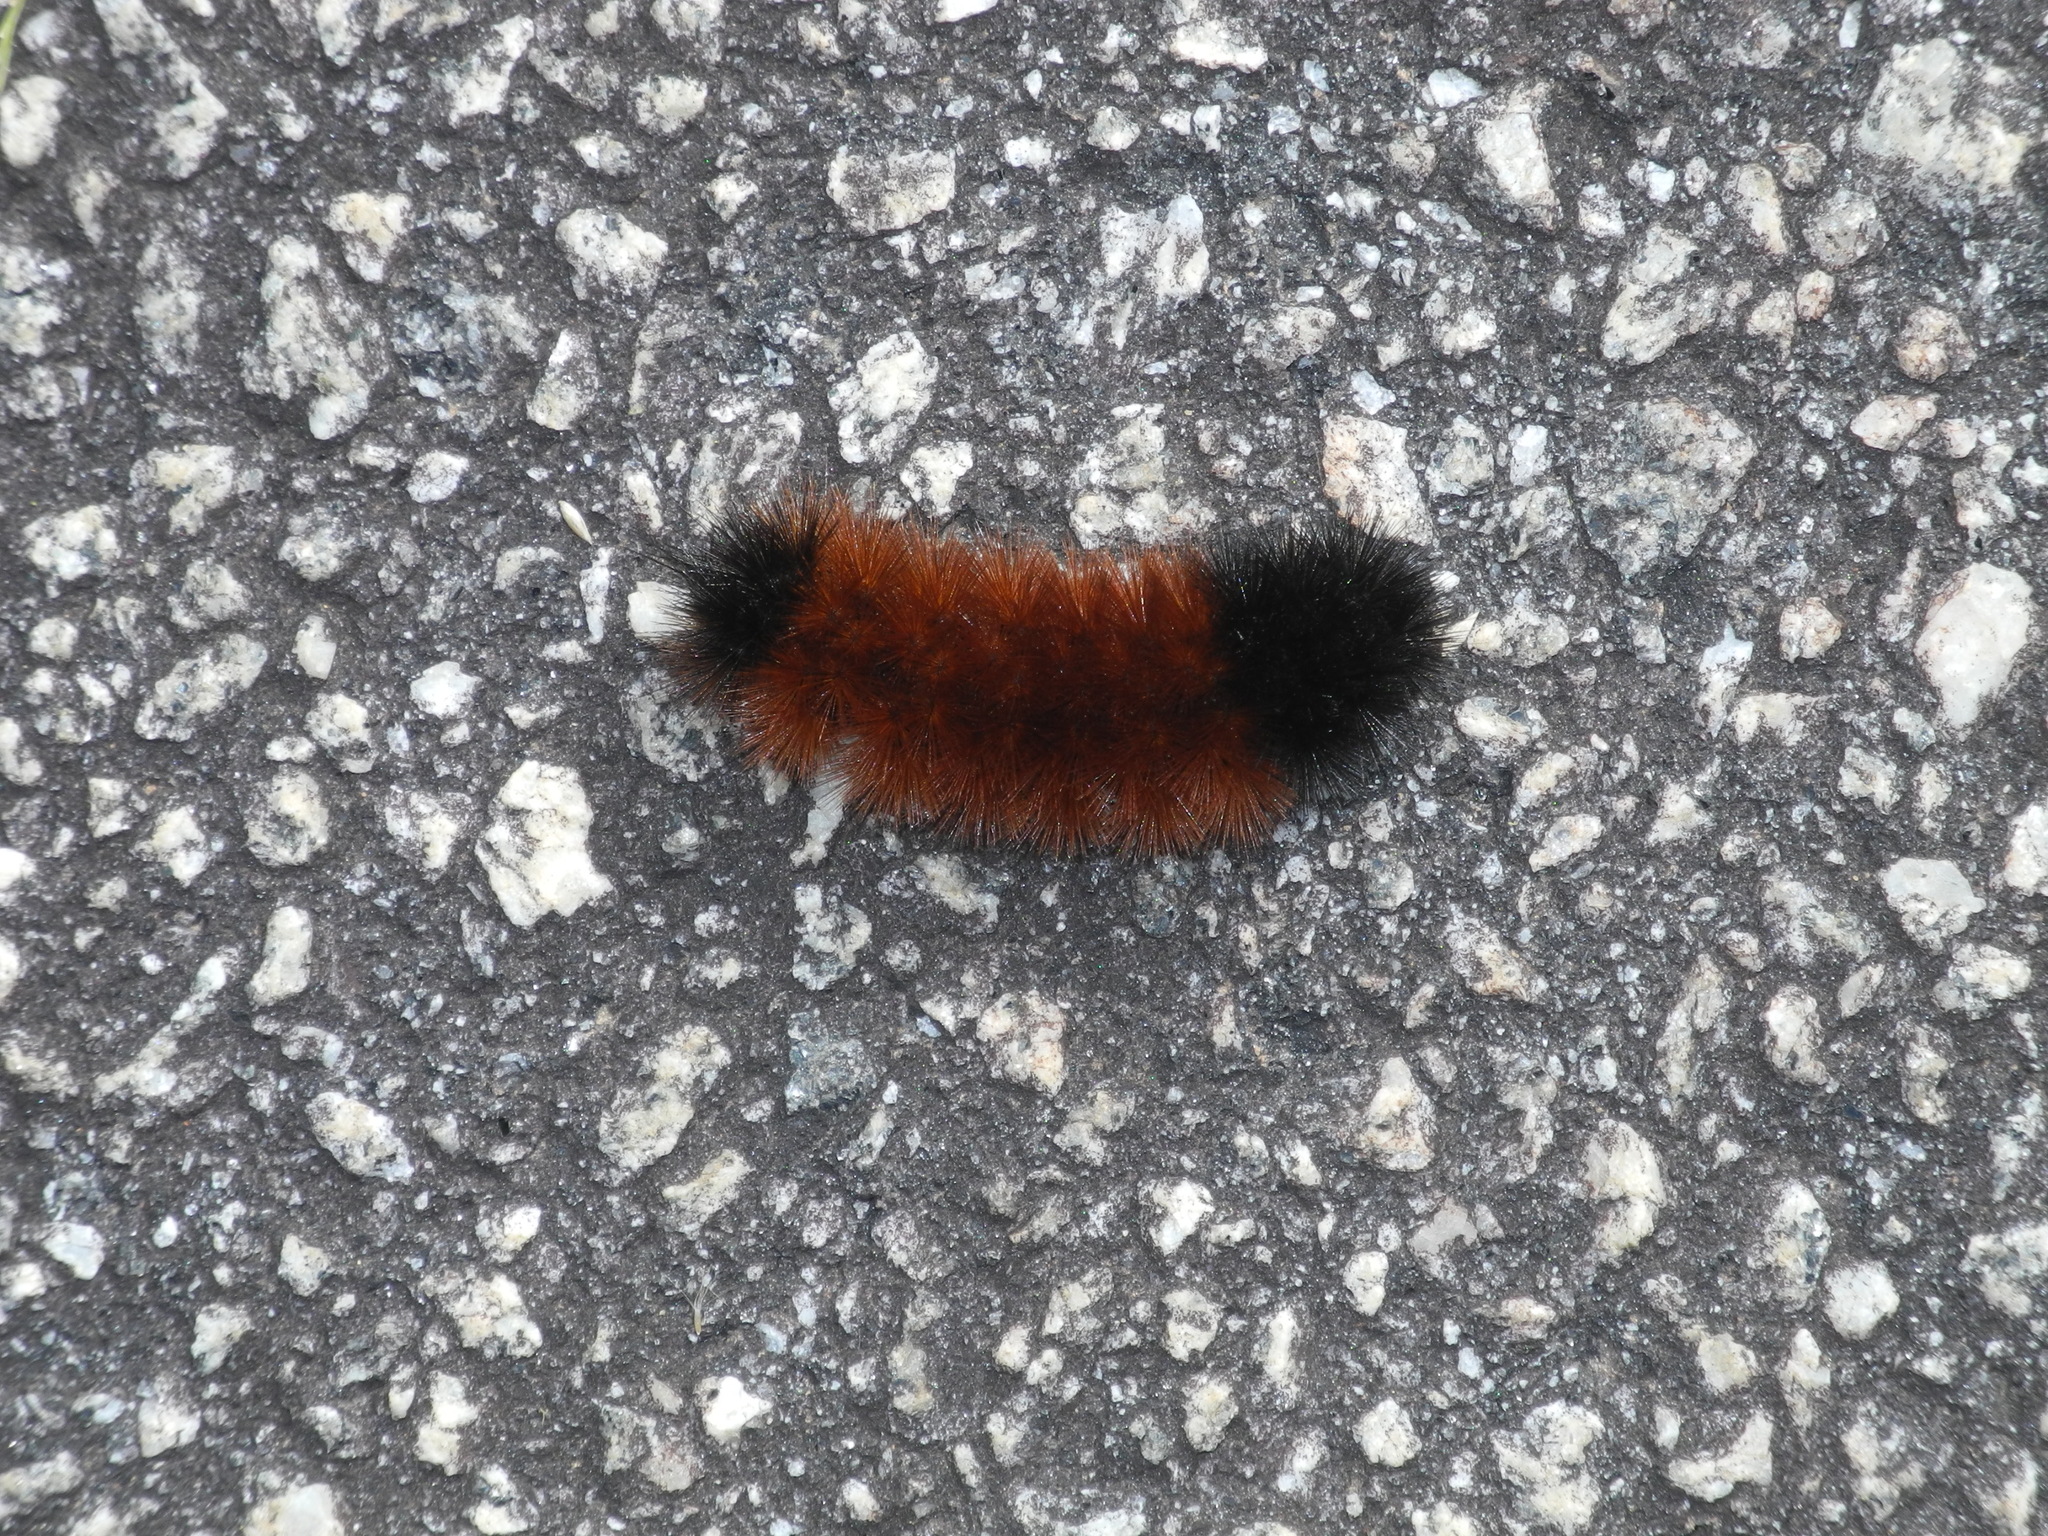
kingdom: Animalia
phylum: Arthropoda
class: Insecta
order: Lepidoptera
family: Erebidae
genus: Pyrrharctia
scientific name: Pyrrharctia isabella
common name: Isabella tiger moth
